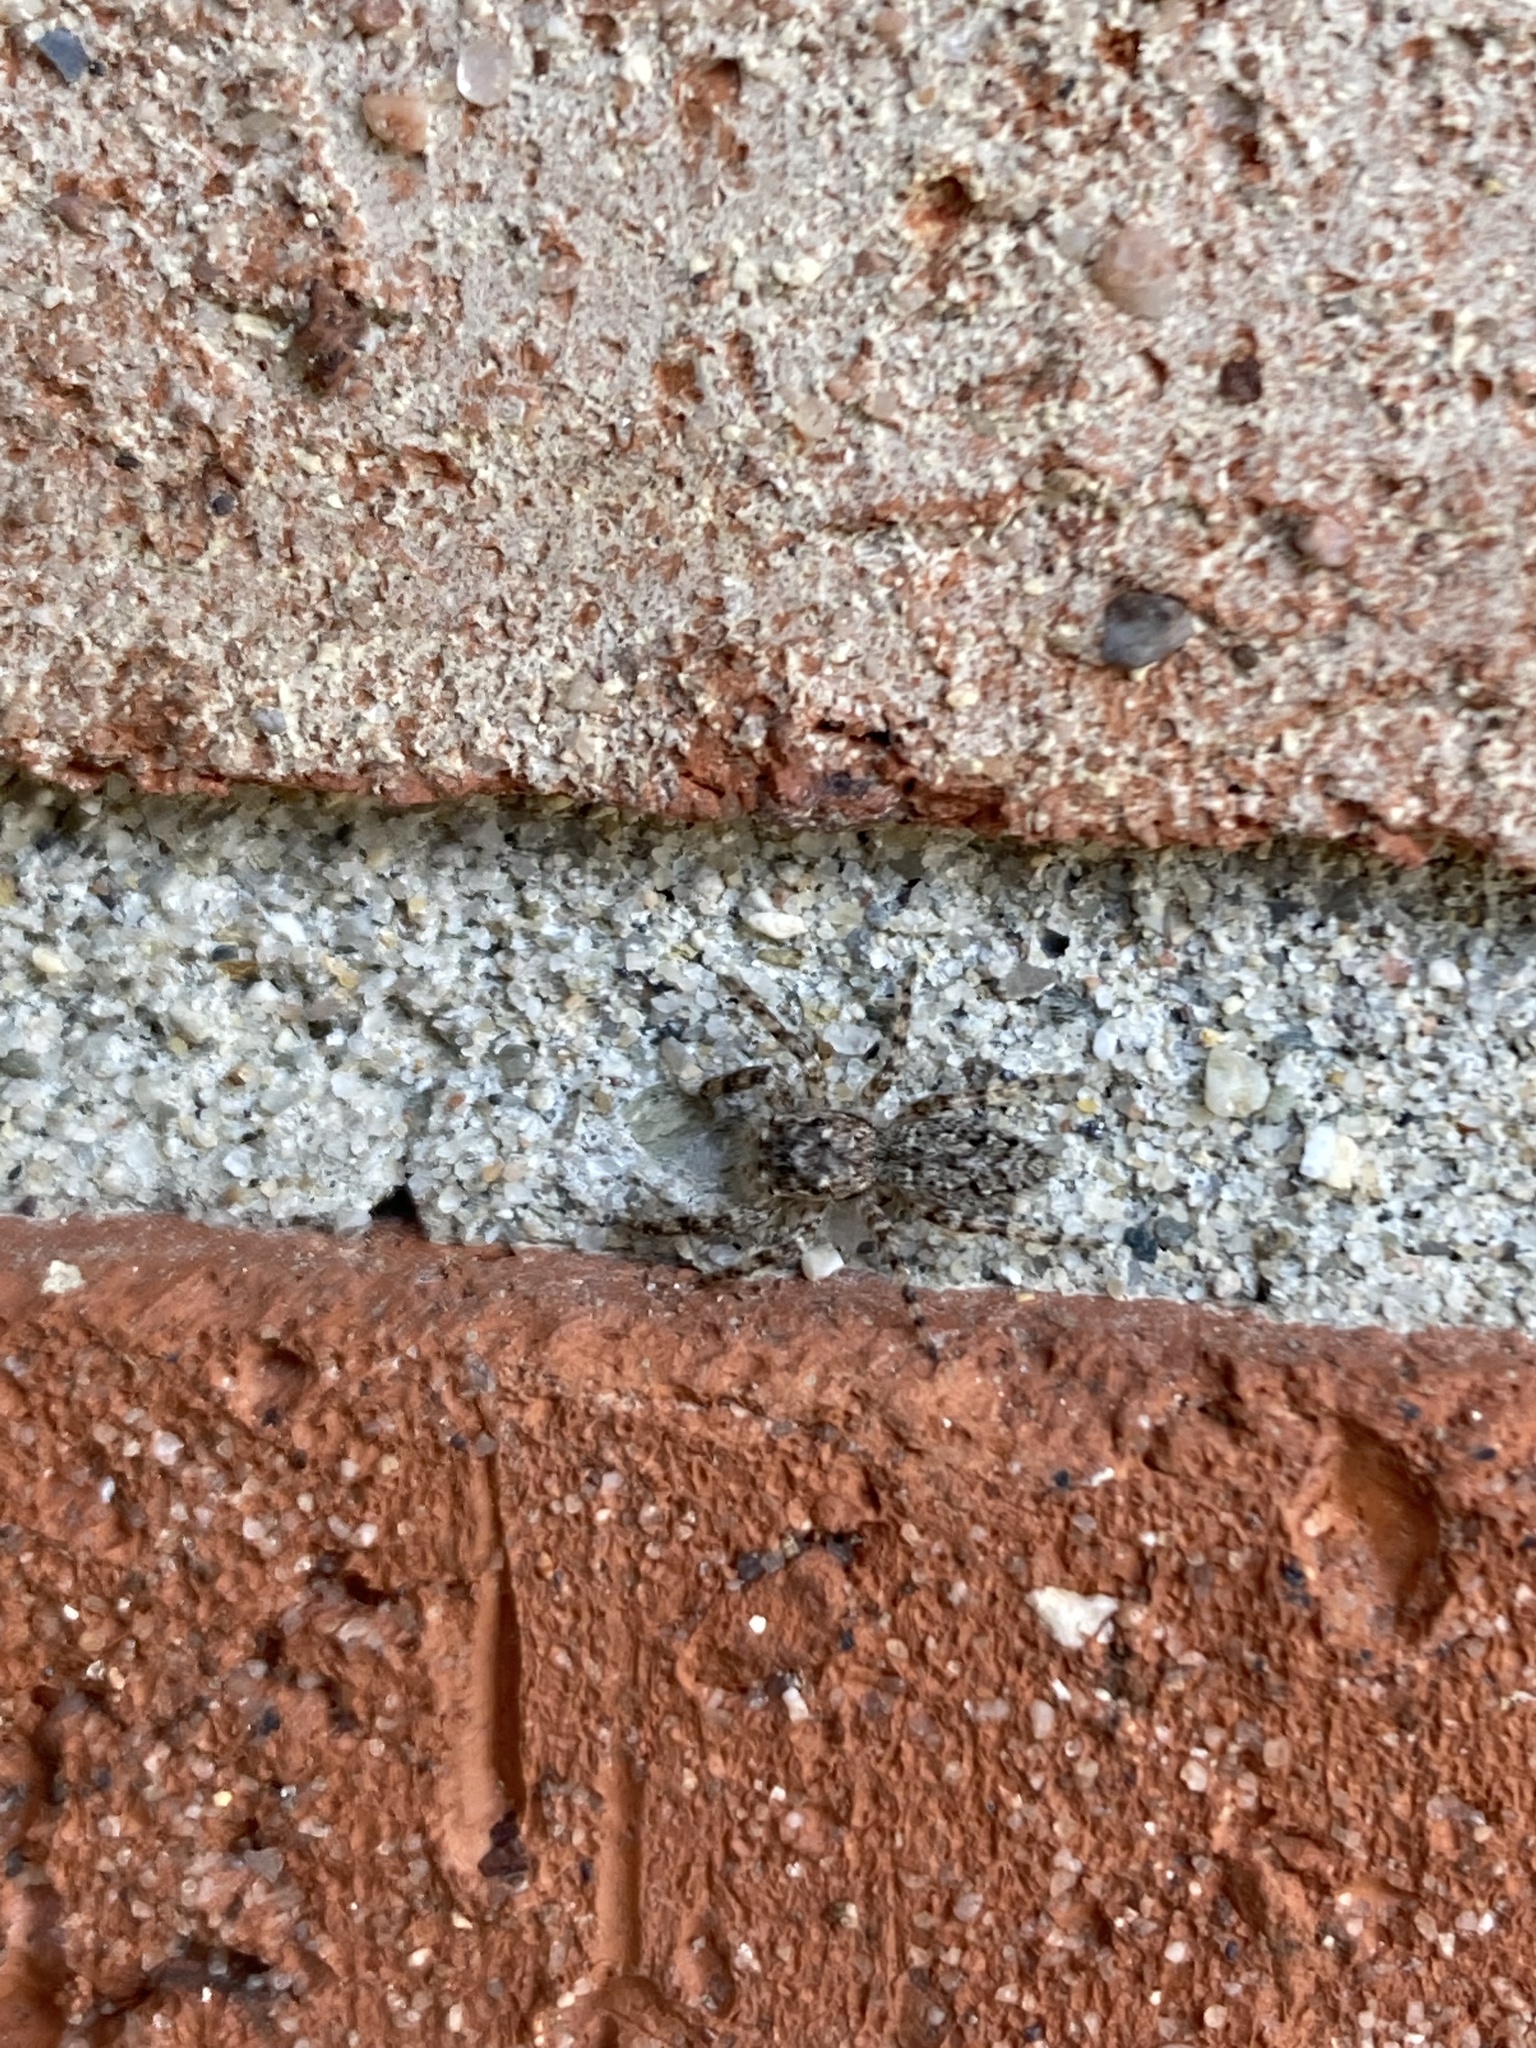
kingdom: Animalia
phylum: Arthropoda
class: Arachnida
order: Araneae
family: Salticidae
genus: Platycryptus
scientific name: Platycryptus undatus
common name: Tan jumping spider
